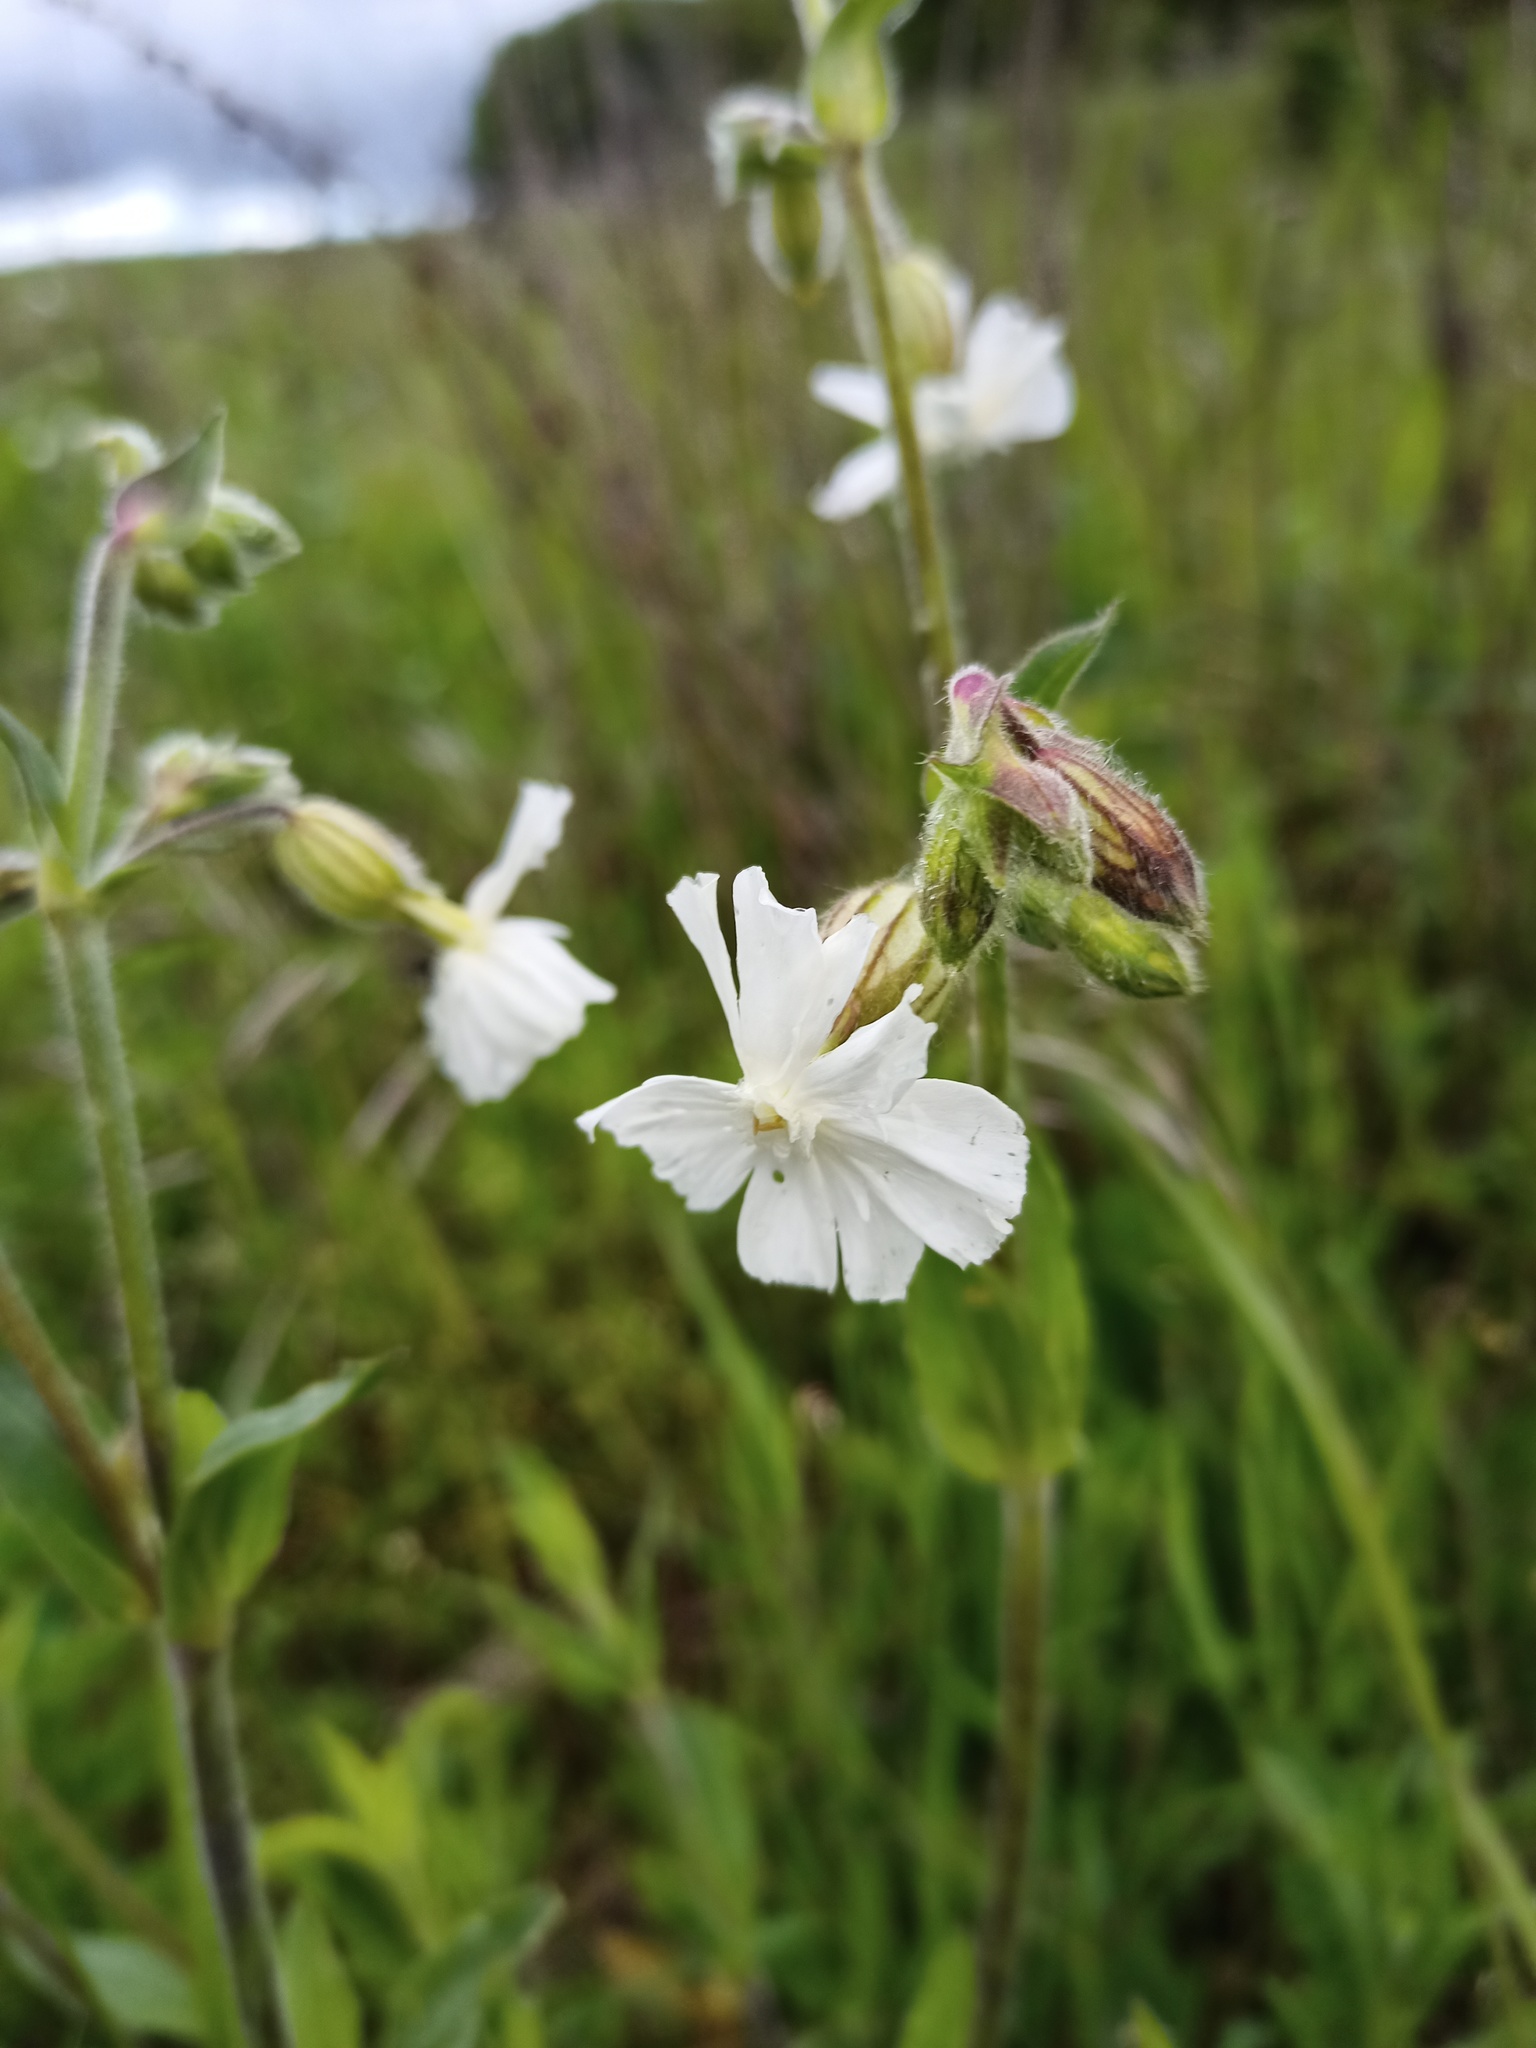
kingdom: Plantae
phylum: Tracheophyta
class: Magnoliopsida
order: Caryophyllales
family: Caryophyllaceae
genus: Silene
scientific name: Silene latifolia
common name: White campion
